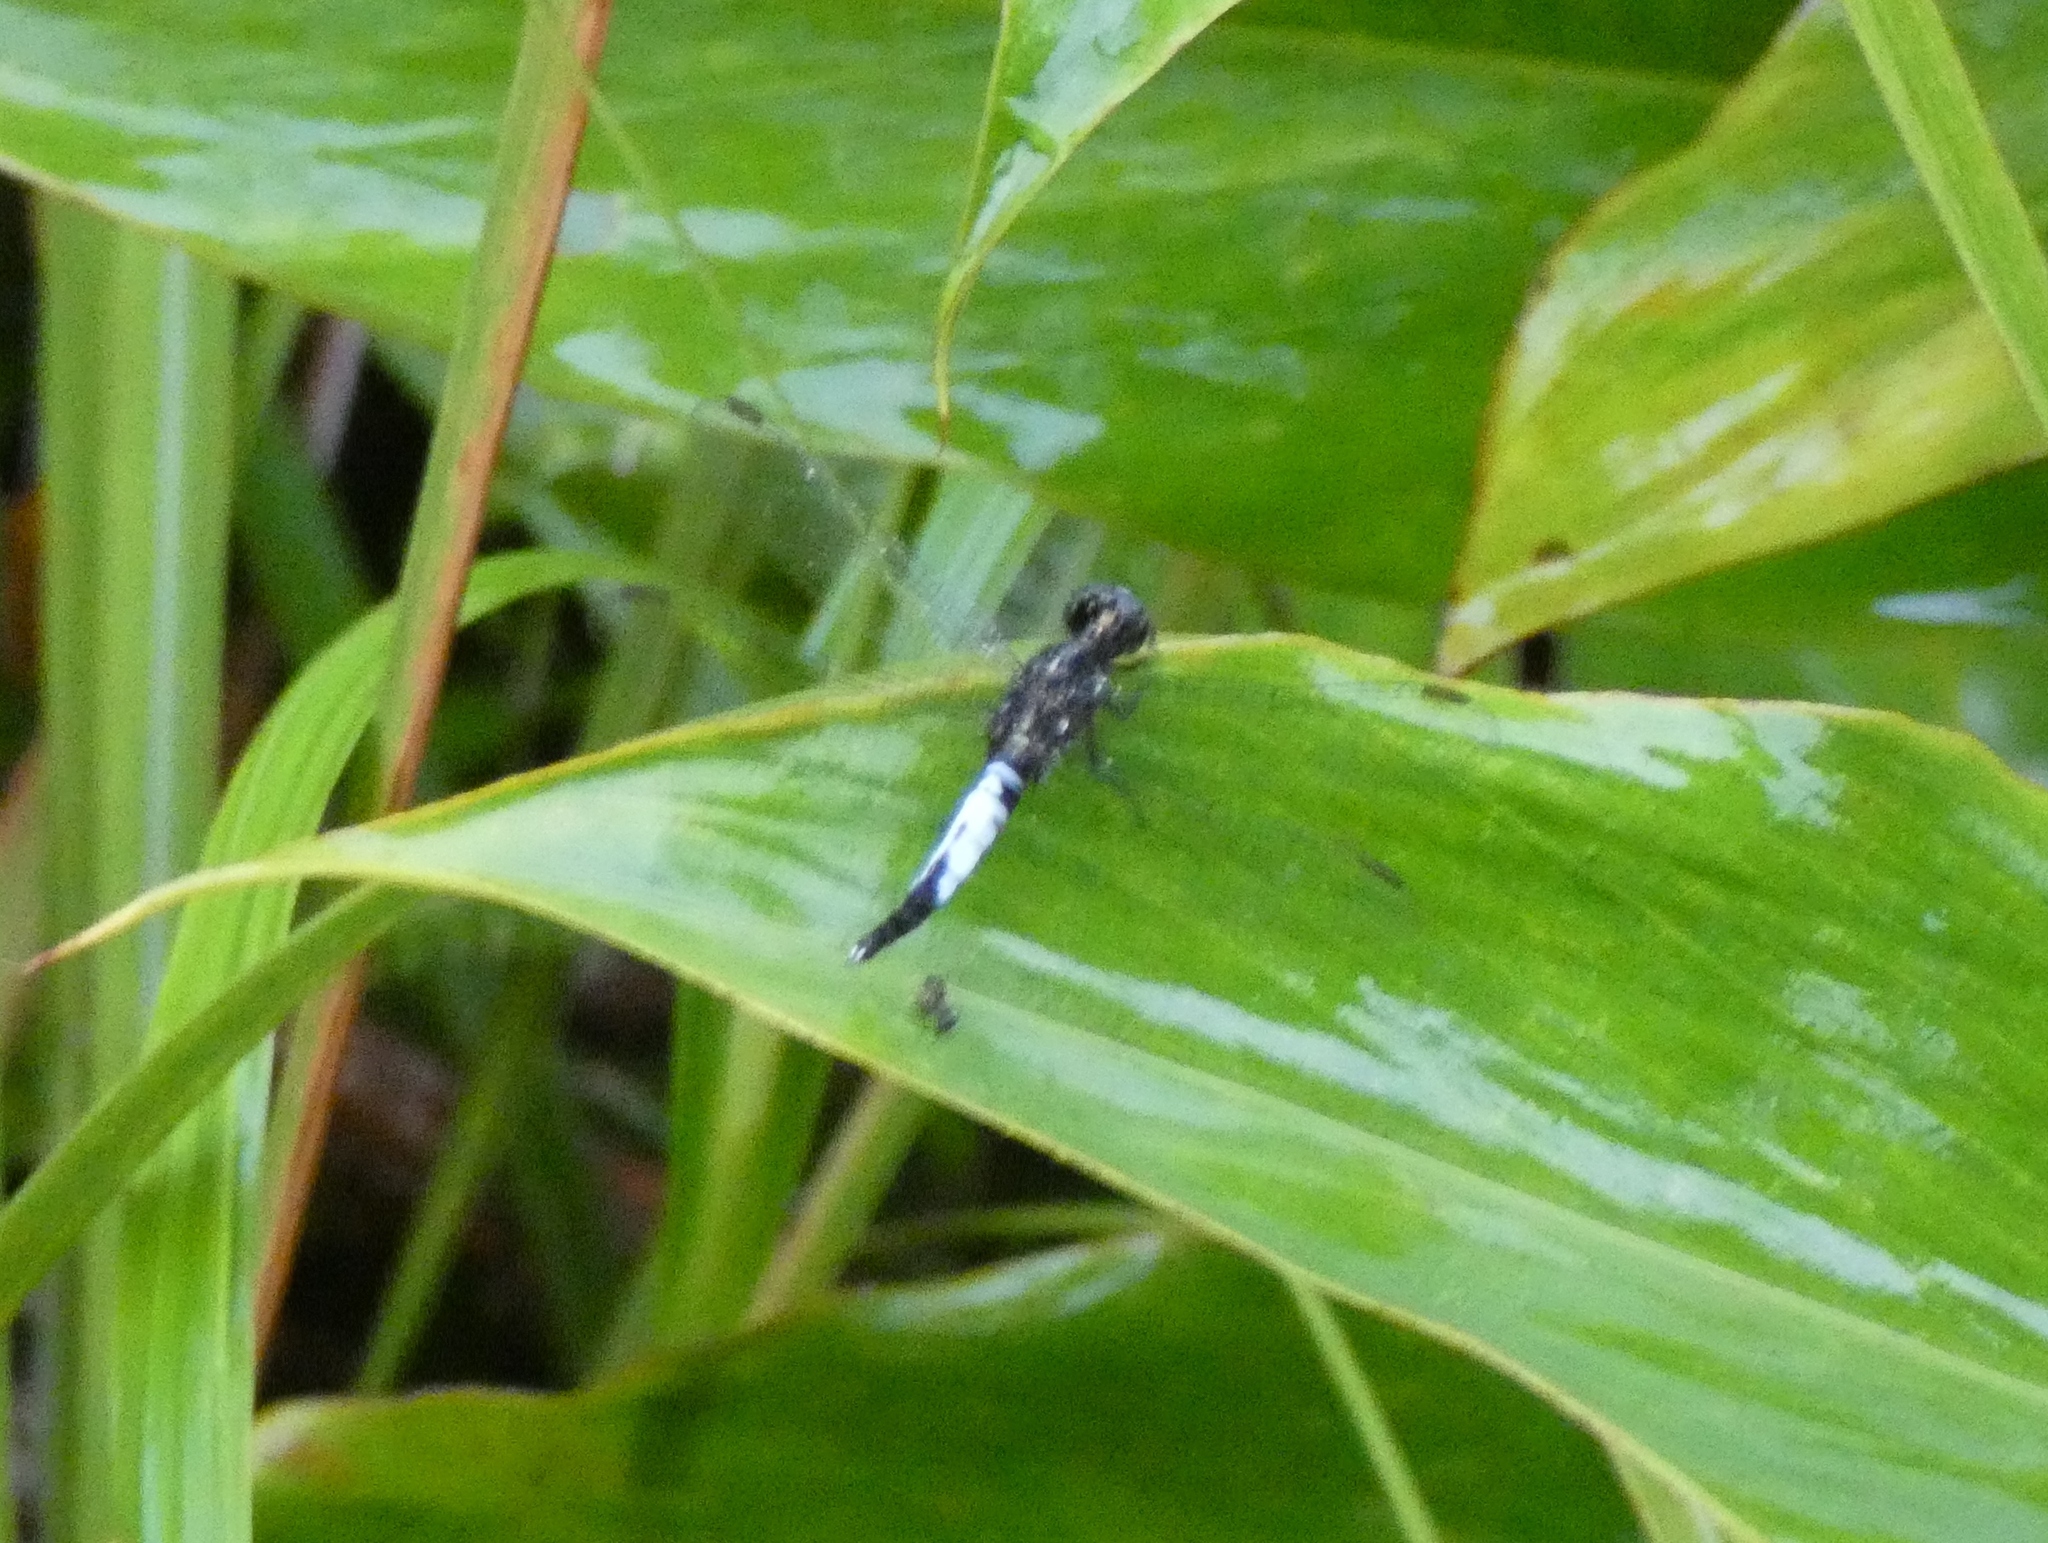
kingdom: Animalia
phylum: Arthropoda
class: Insecta
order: Odonata
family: Libellulidae
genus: Acisoma
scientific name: Acisoma trifidum
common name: Ivory pintail
